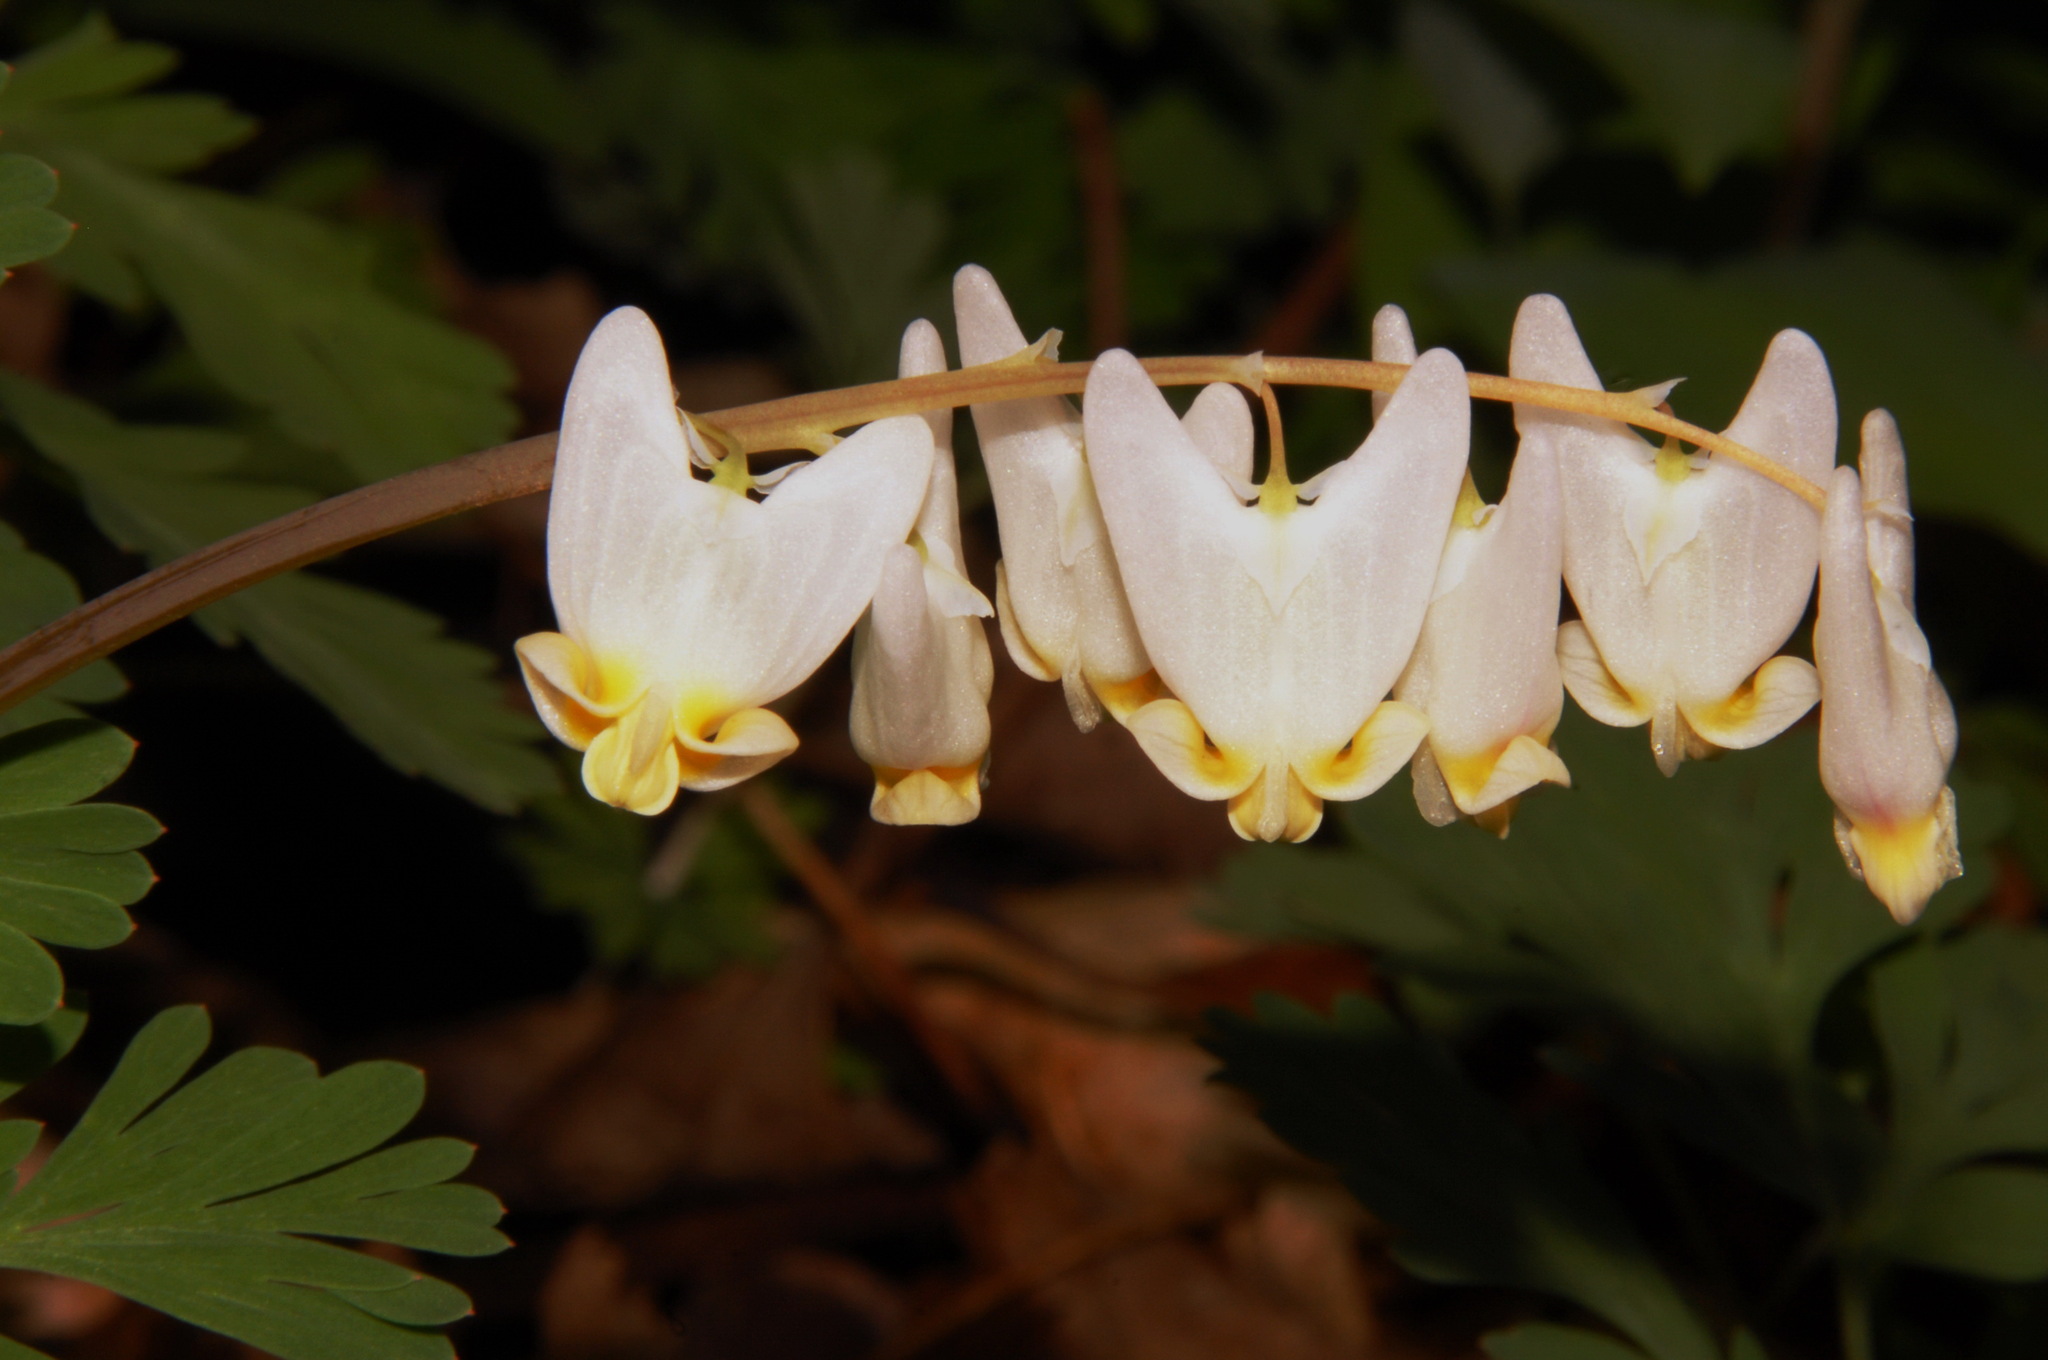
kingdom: Plantae
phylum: Tracheophyta
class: Magnoliopsida
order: Ranunculales
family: Papaveraceae
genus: Dicentra
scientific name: Dicentra cucullaria
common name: Dutchman's breeches
